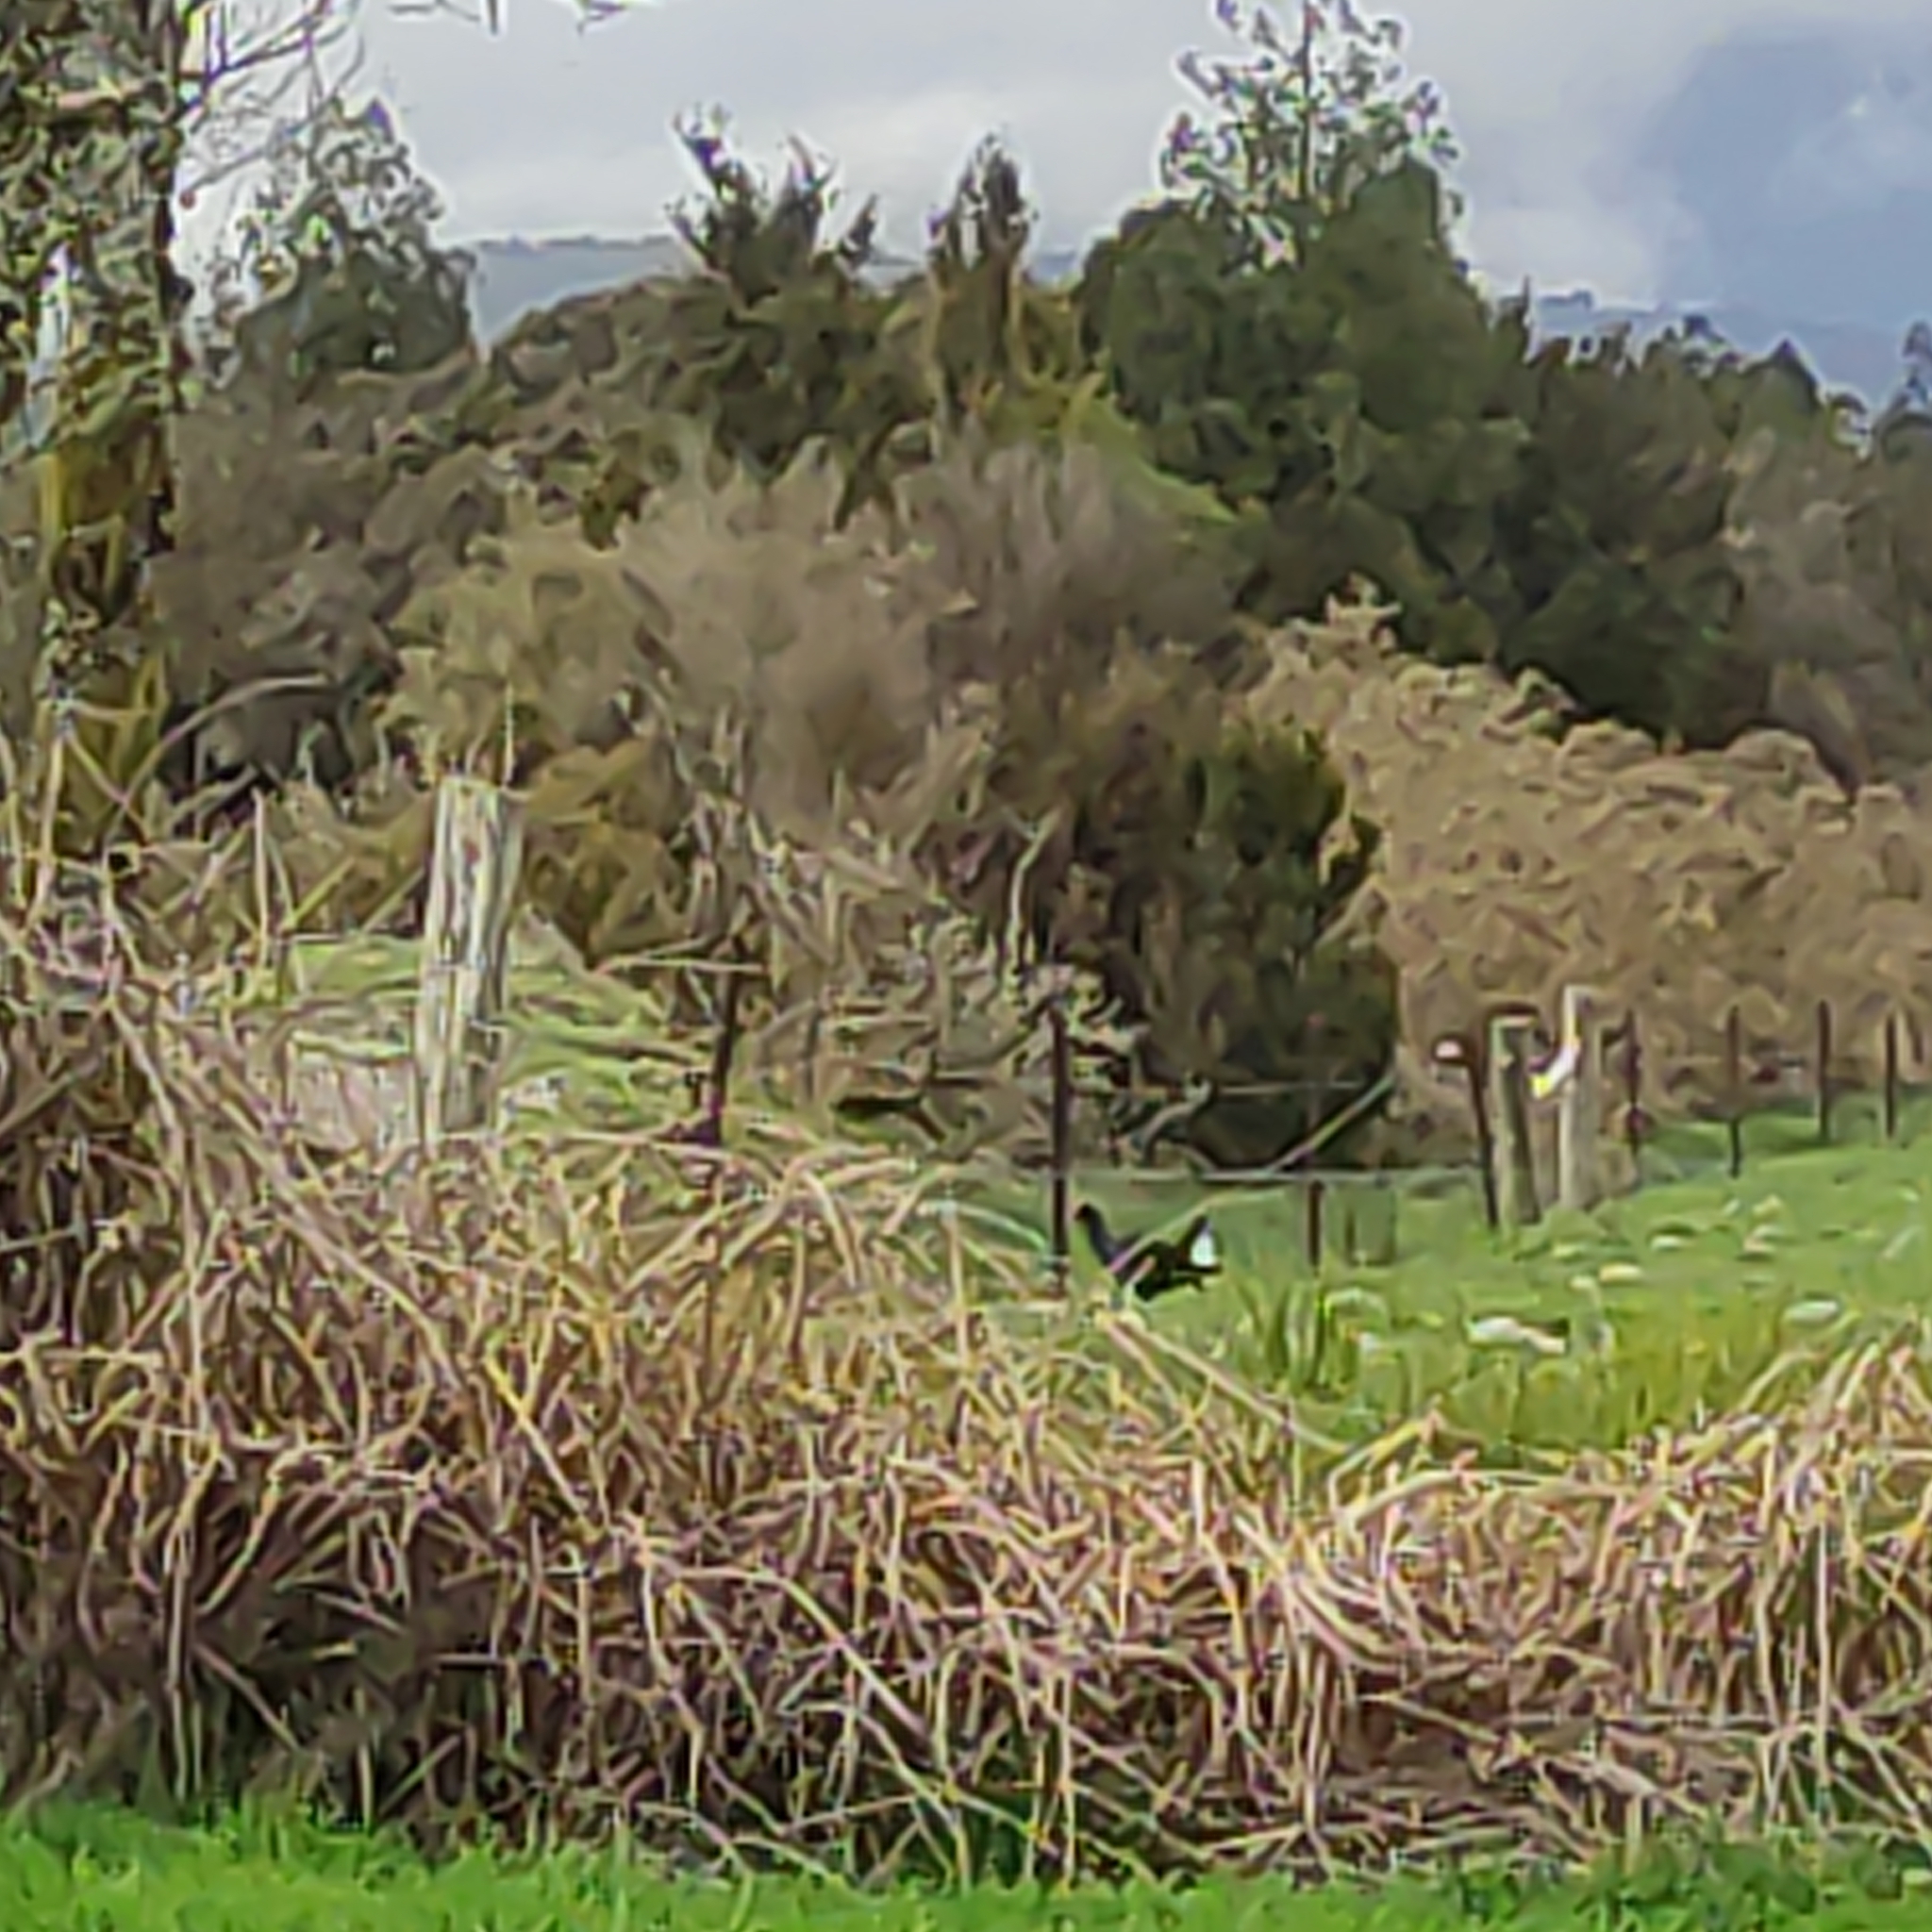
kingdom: Animalia
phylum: Chordata
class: Aves
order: Gruiformes
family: Rallidae
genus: Porphyrio
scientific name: Porphyrio melanotus
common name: Australasian swamphen
